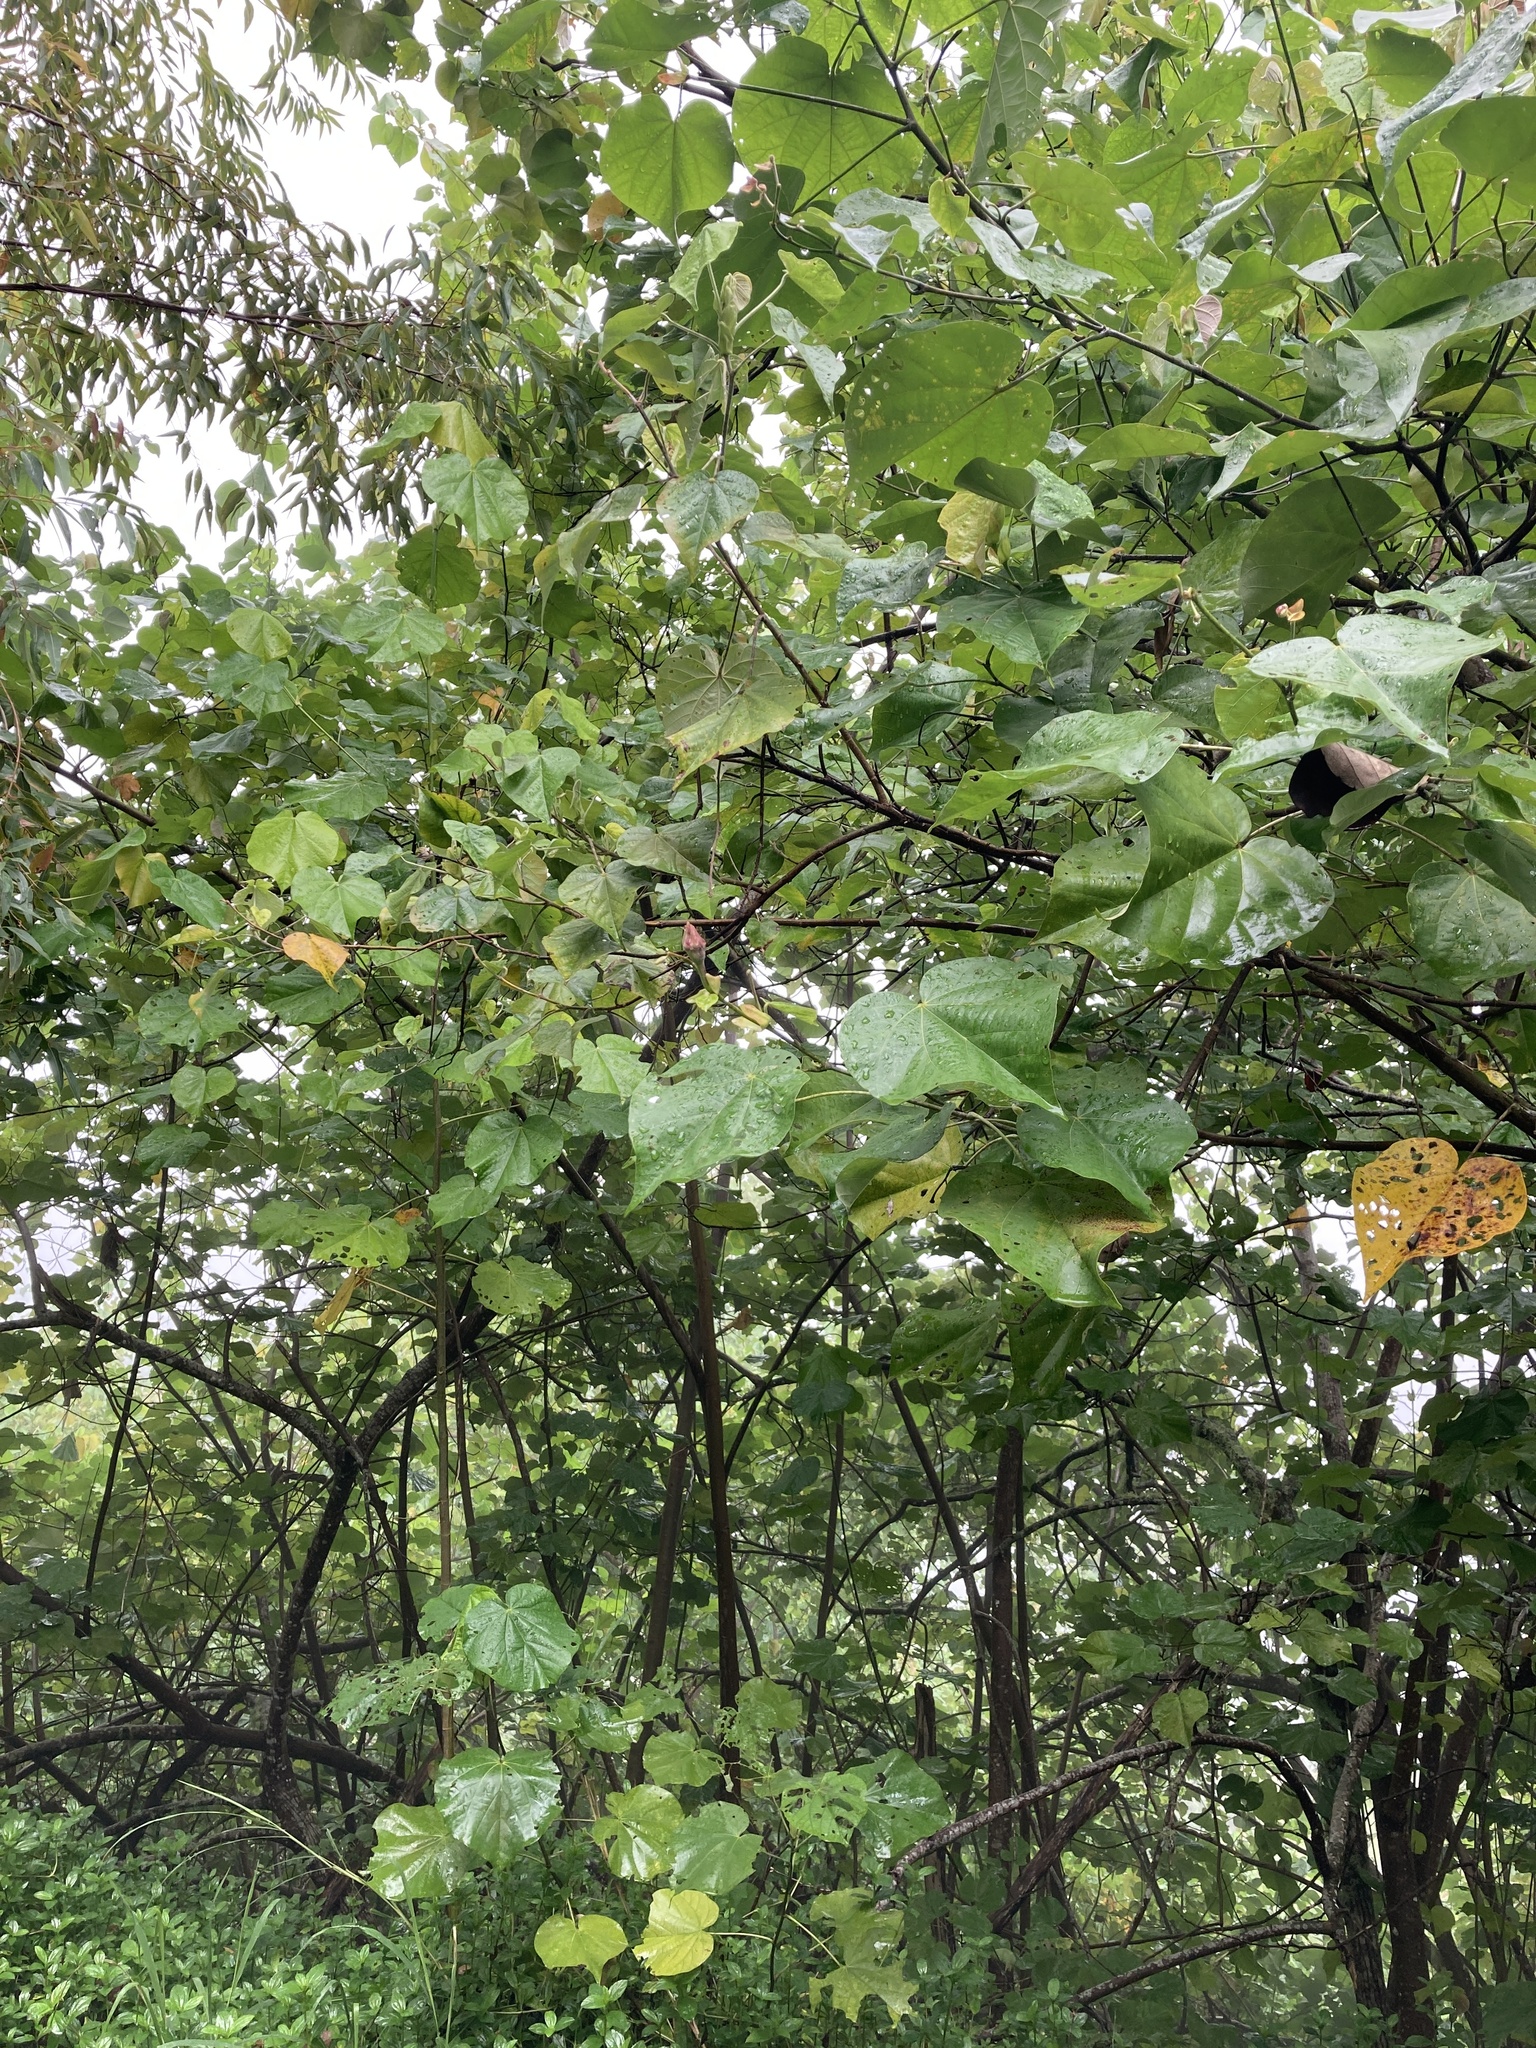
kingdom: Plantae
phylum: Tracheophyta
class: Magnoliopsida
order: Malvales
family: Malvaceae
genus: Talipariti
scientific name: Talipariti tiliaceum
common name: Sea hibiscus
